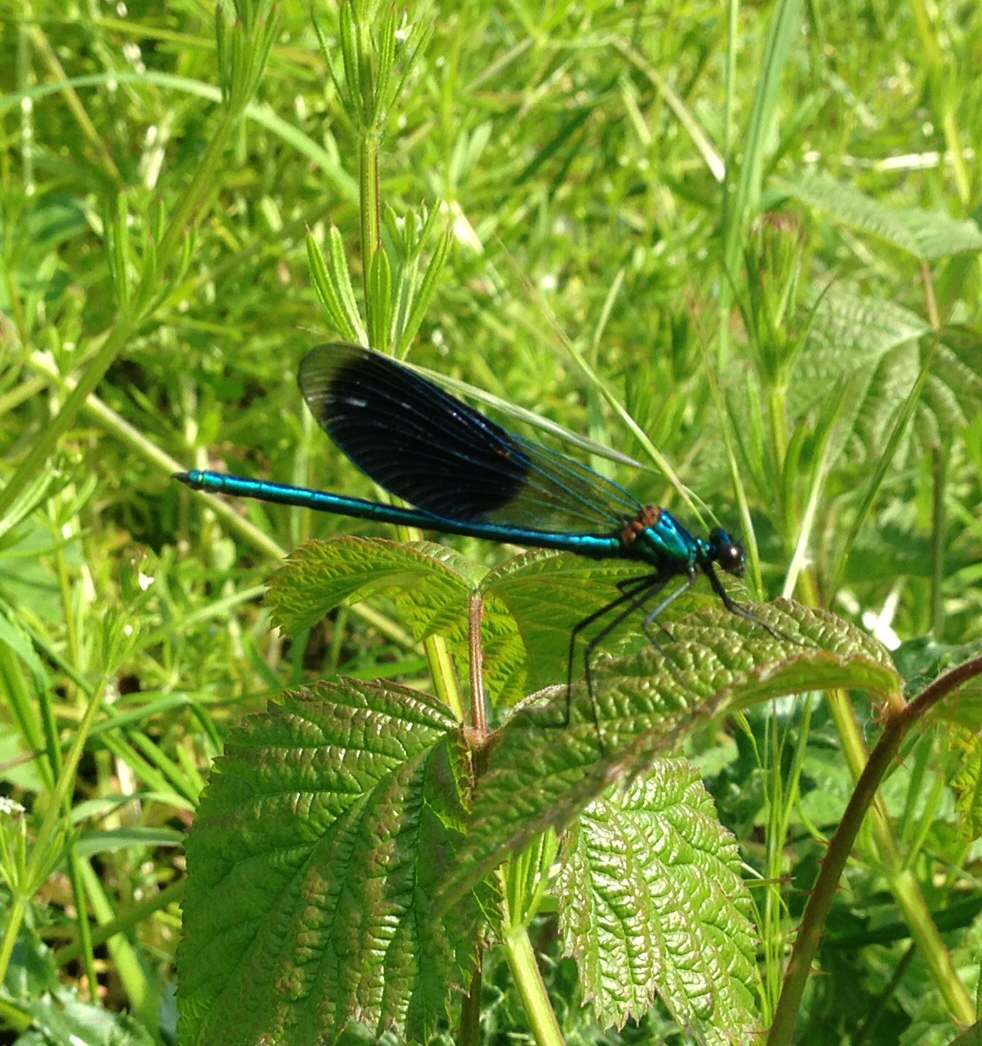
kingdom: Animalia
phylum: Arthropoda
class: Insecta
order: Odonata
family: Calopterygidae
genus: Calopteryx
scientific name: Calopteryx splendens
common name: Banded demoiselle
